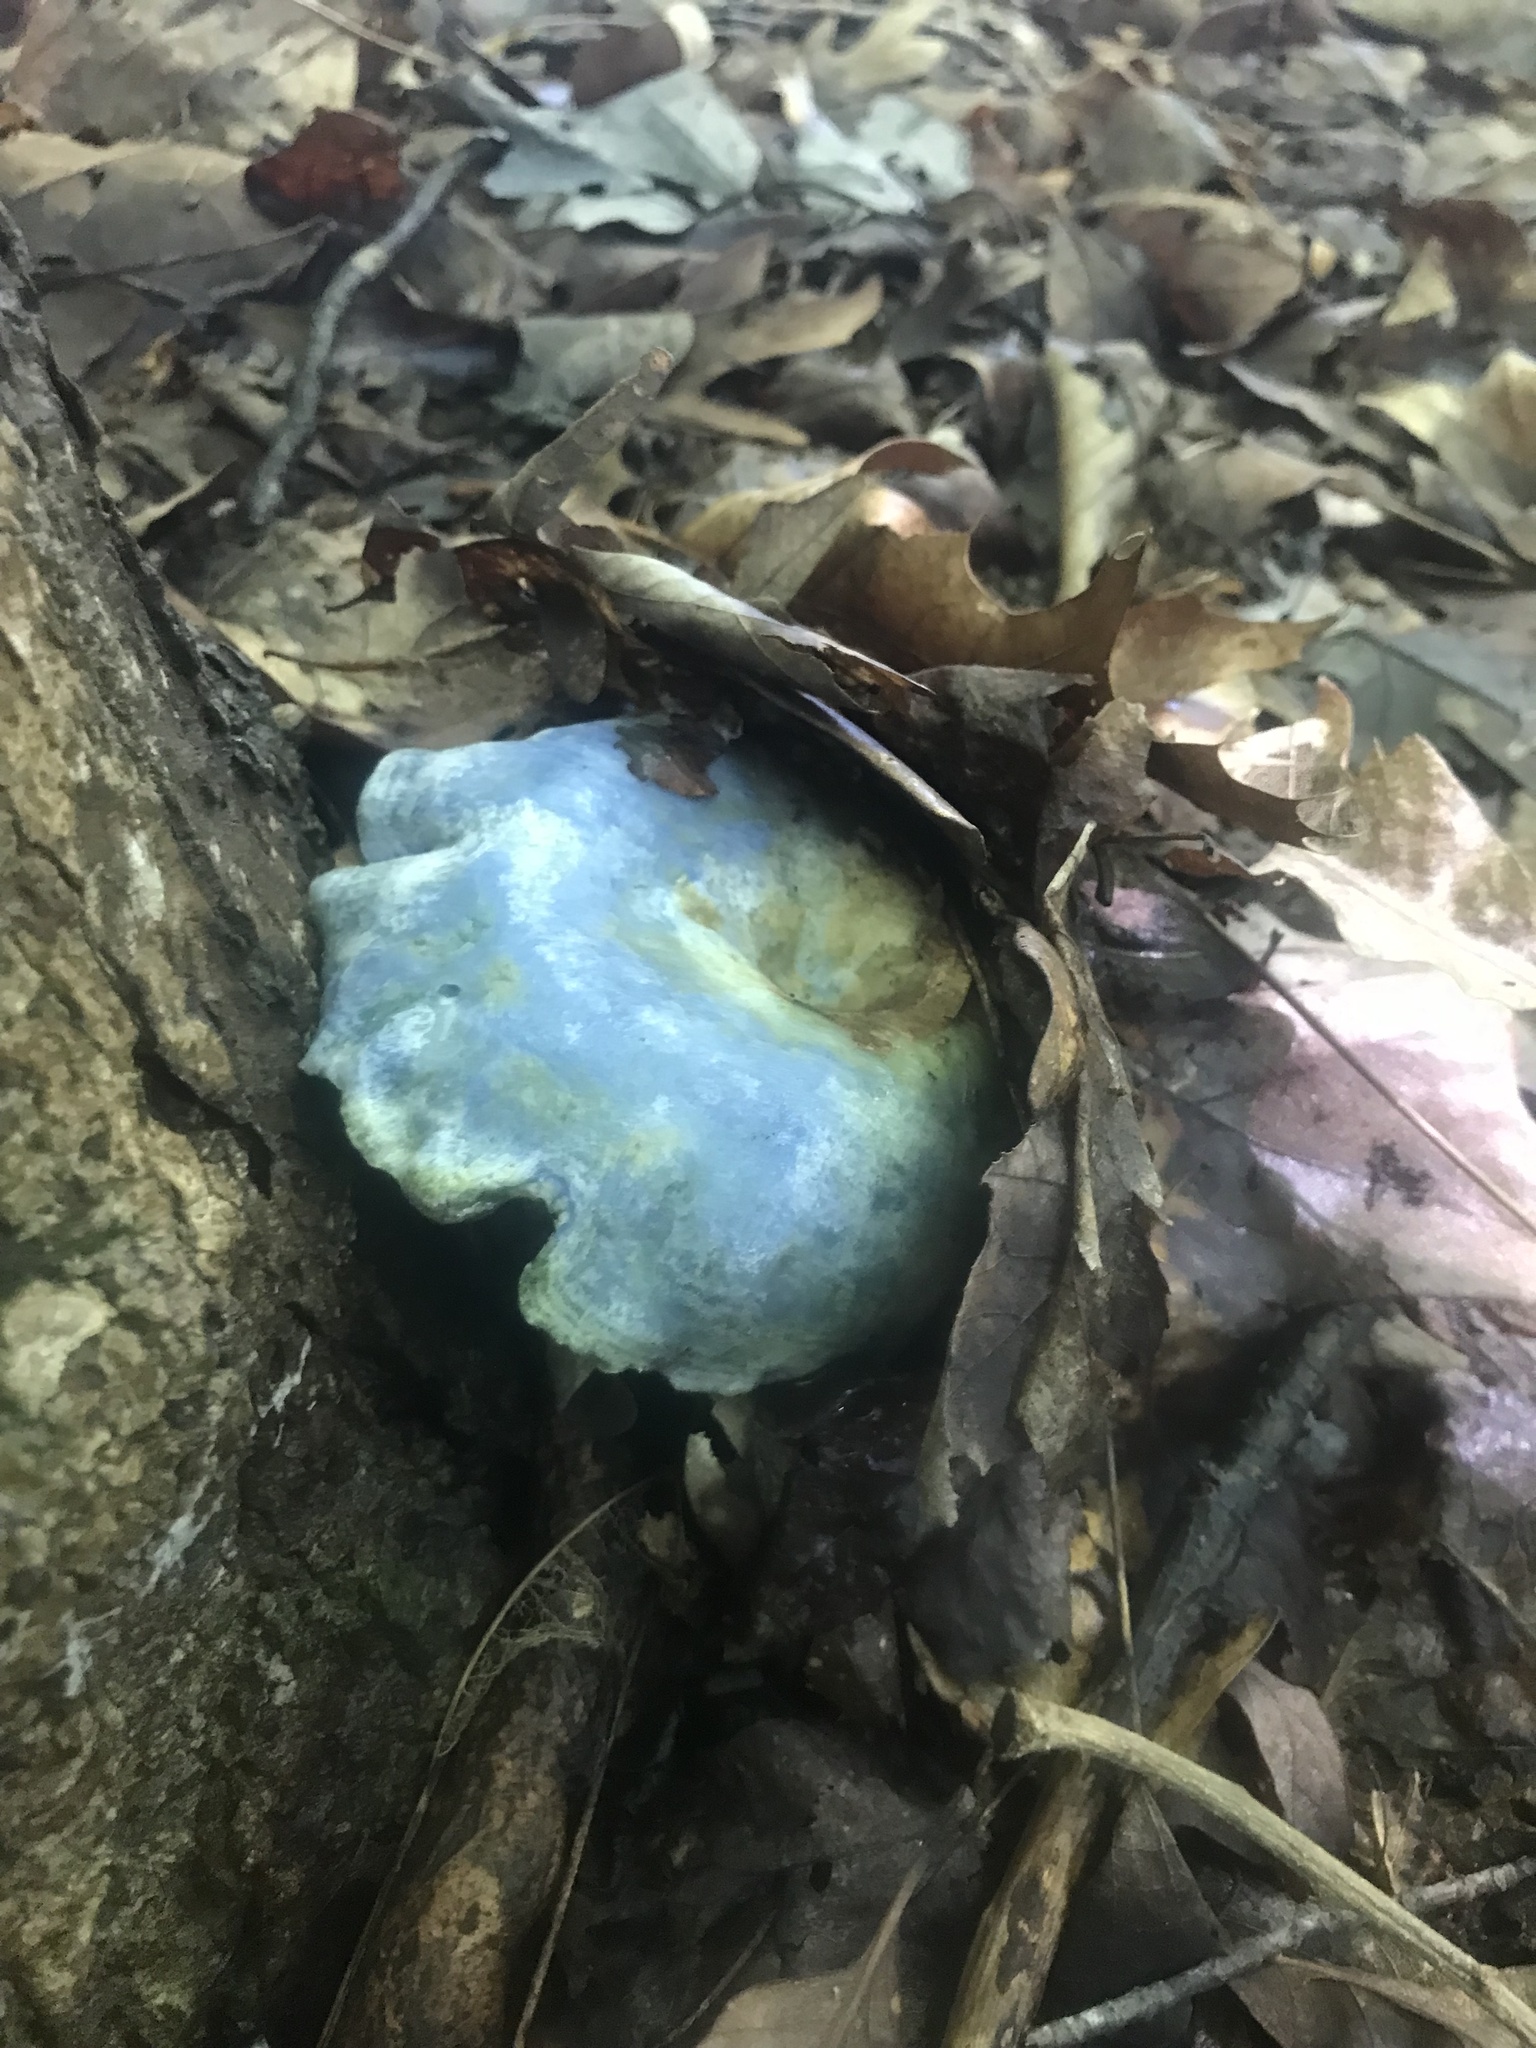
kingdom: Fungi
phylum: Basidiomycota
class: Agaricomycetes
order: Russulales
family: Russulaceae
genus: Lactarius
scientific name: Lactarius indigo
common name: Indigo milk cap
